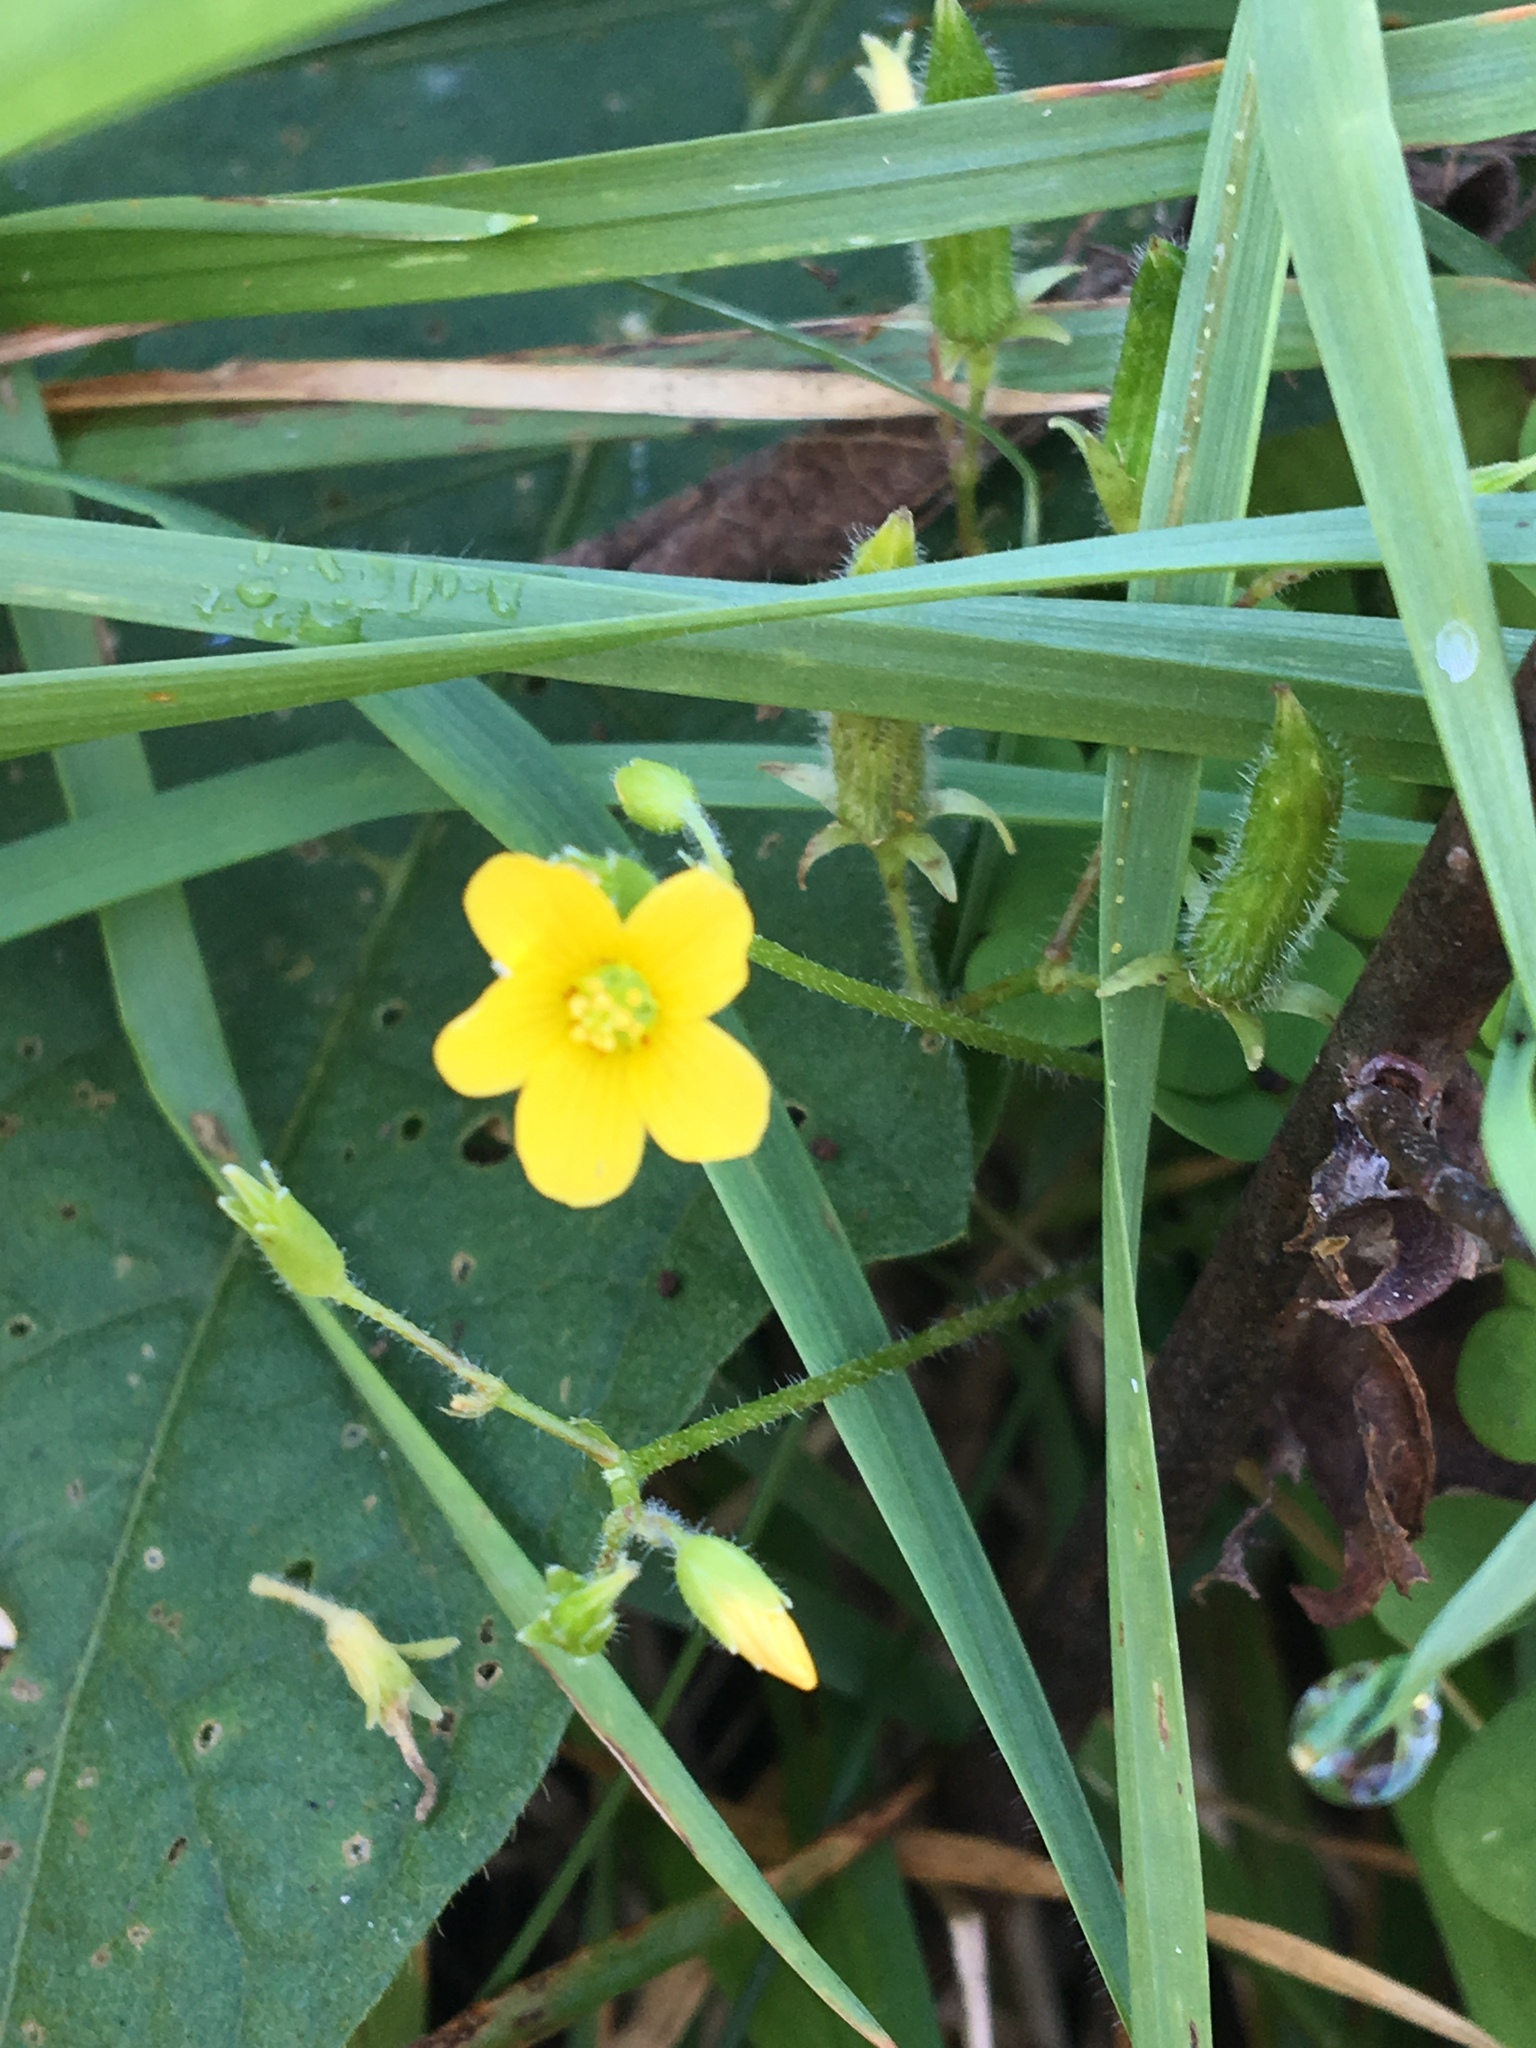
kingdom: Plantae
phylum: Tracheophyta
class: Magnoliopsida
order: Oxalidales
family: Oxalidaceae
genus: Oxalis
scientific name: Oxalis stricta
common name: Upright yellow-sorrel
